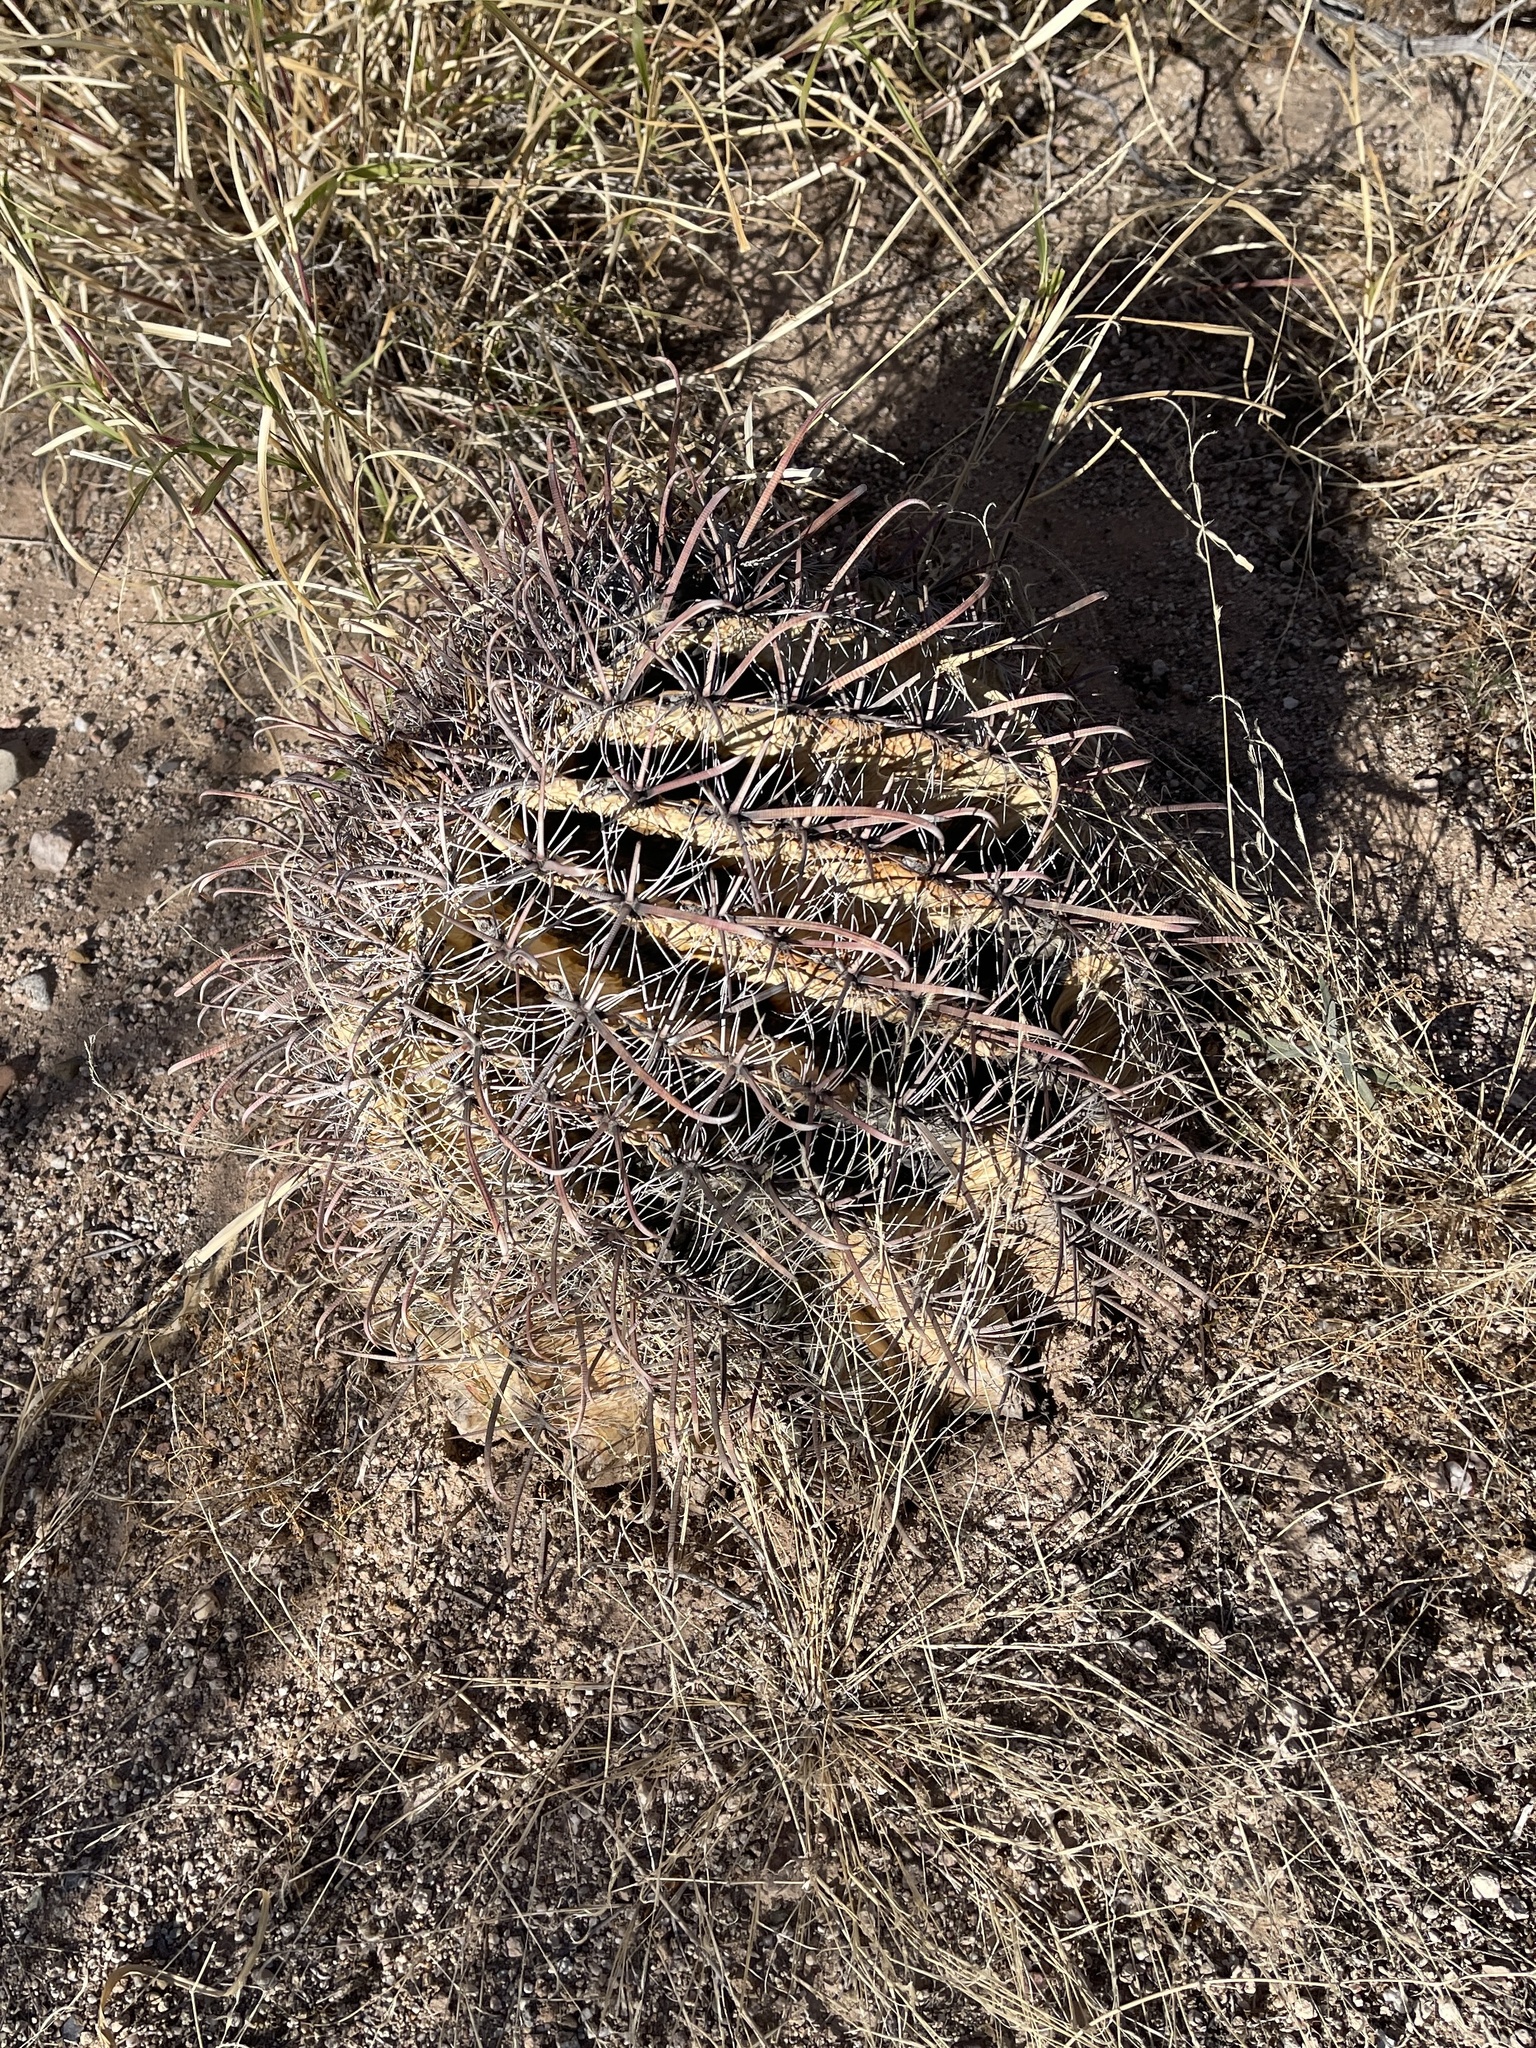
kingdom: Plantae
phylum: Tracheophyta
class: Magnoliopsida
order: Caryophyllales
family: Cactaceae
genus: Ferocactus
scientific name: Ferocactus wislizeni
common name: Candy barrel cactus
